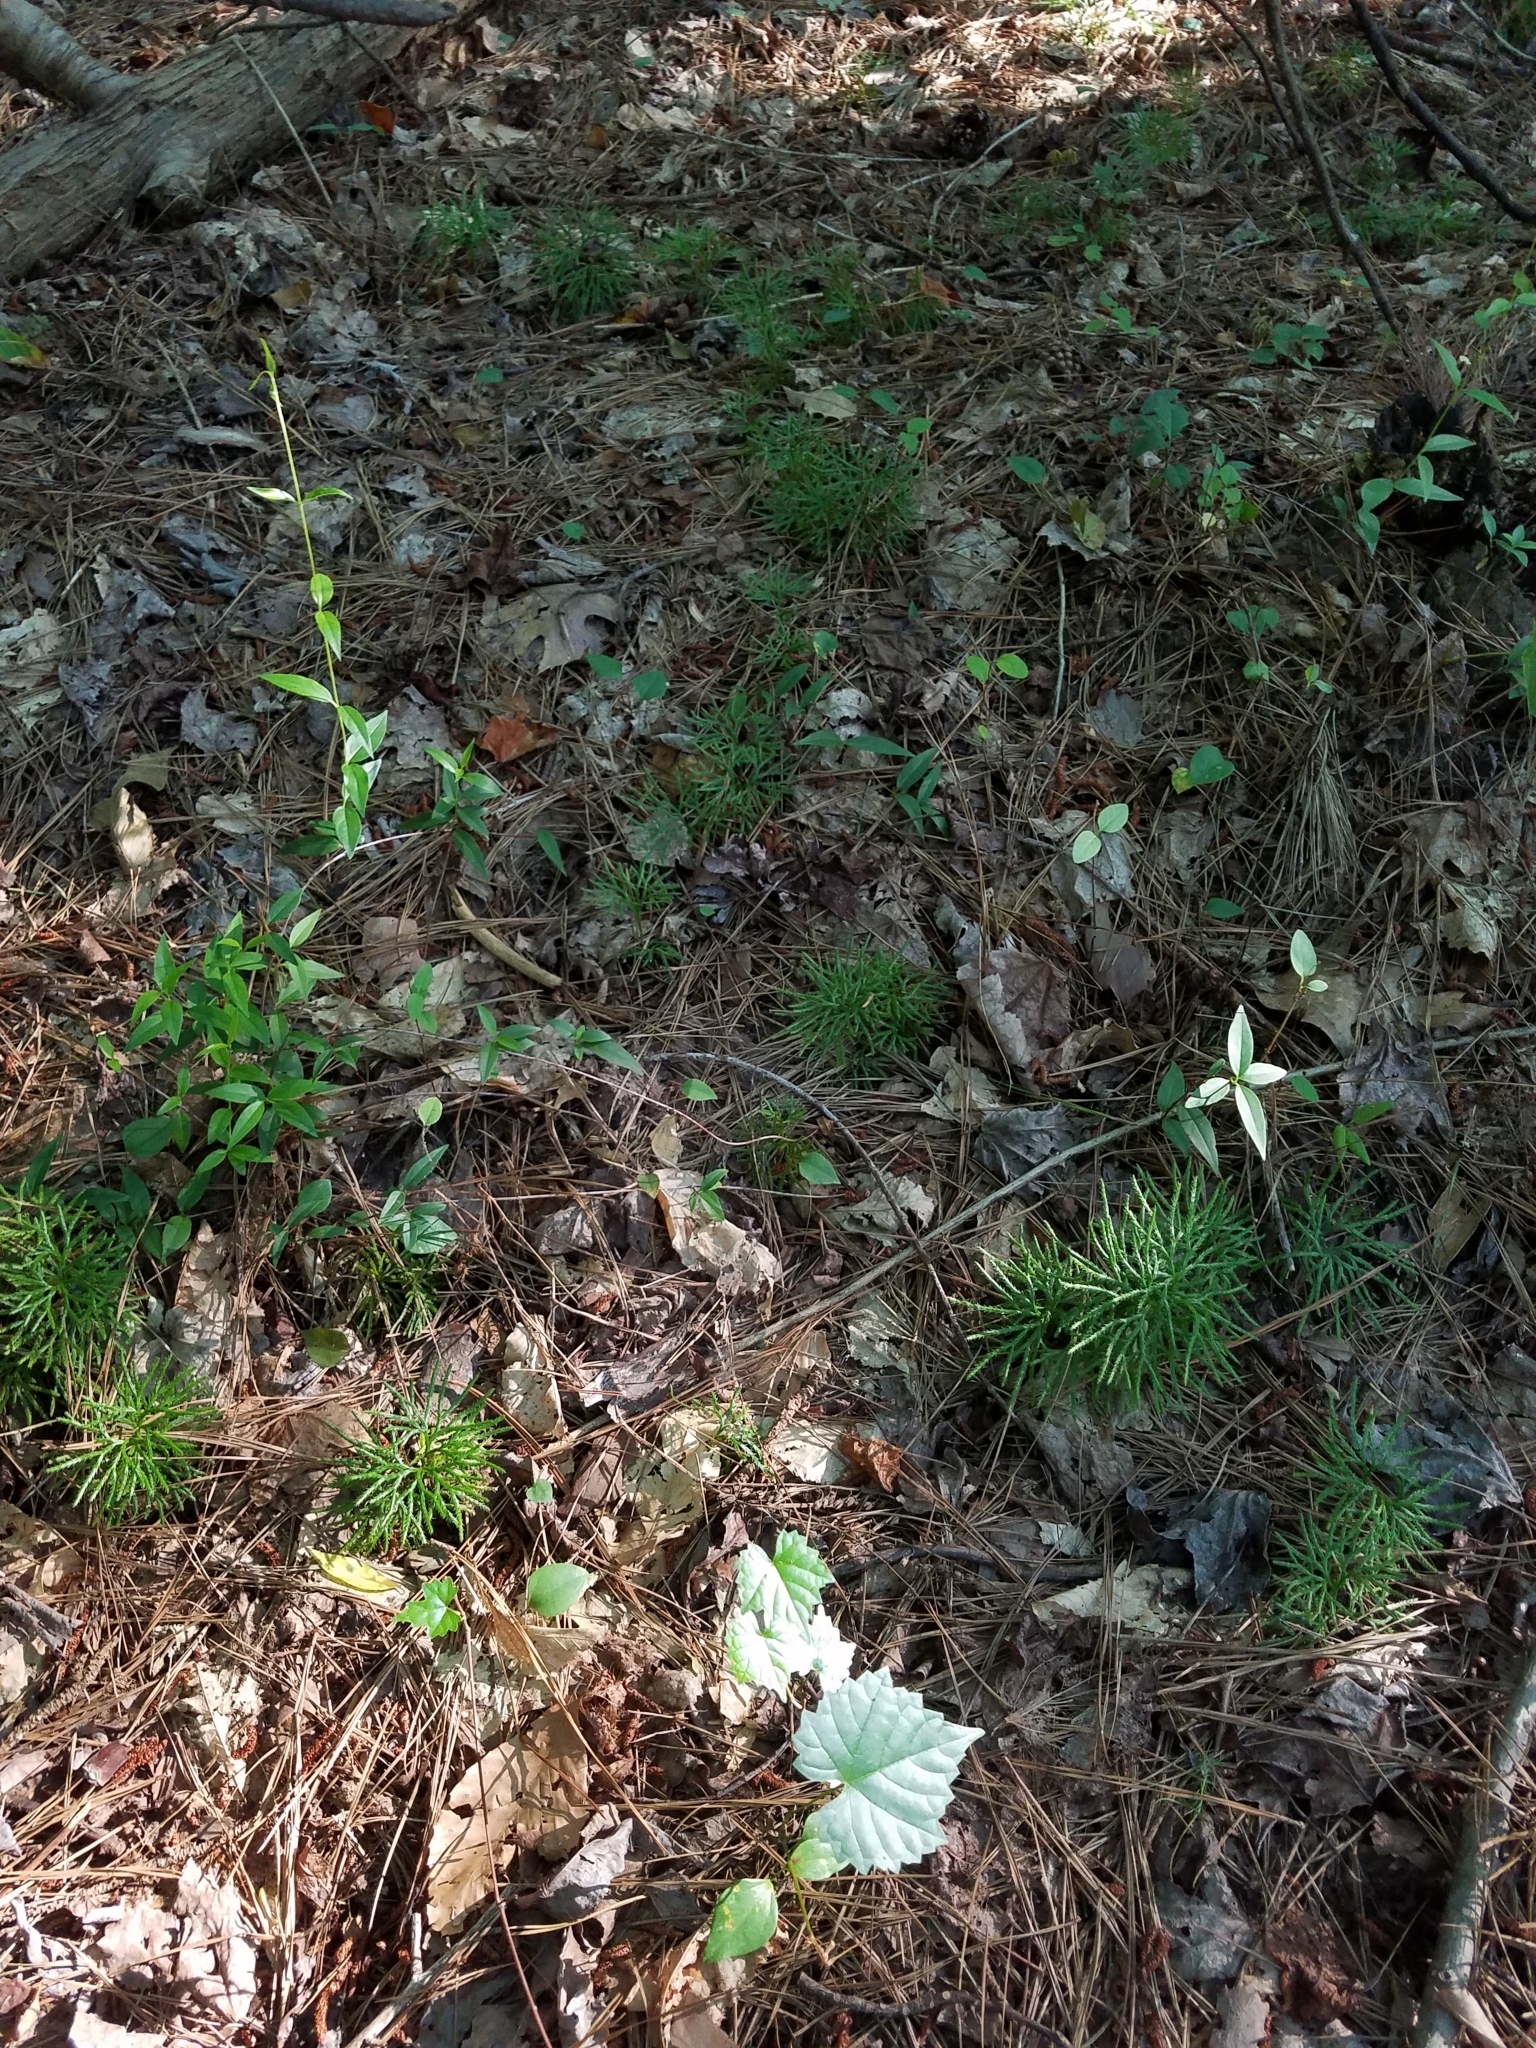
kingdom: Plantae
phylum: Tracheophyta
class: Lycopodiopsida
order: Lycopodiales
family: Lycopodiaceae
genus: Diphasiastrum
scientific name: Diphasiastrum digitatum
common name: Southern running-pine
